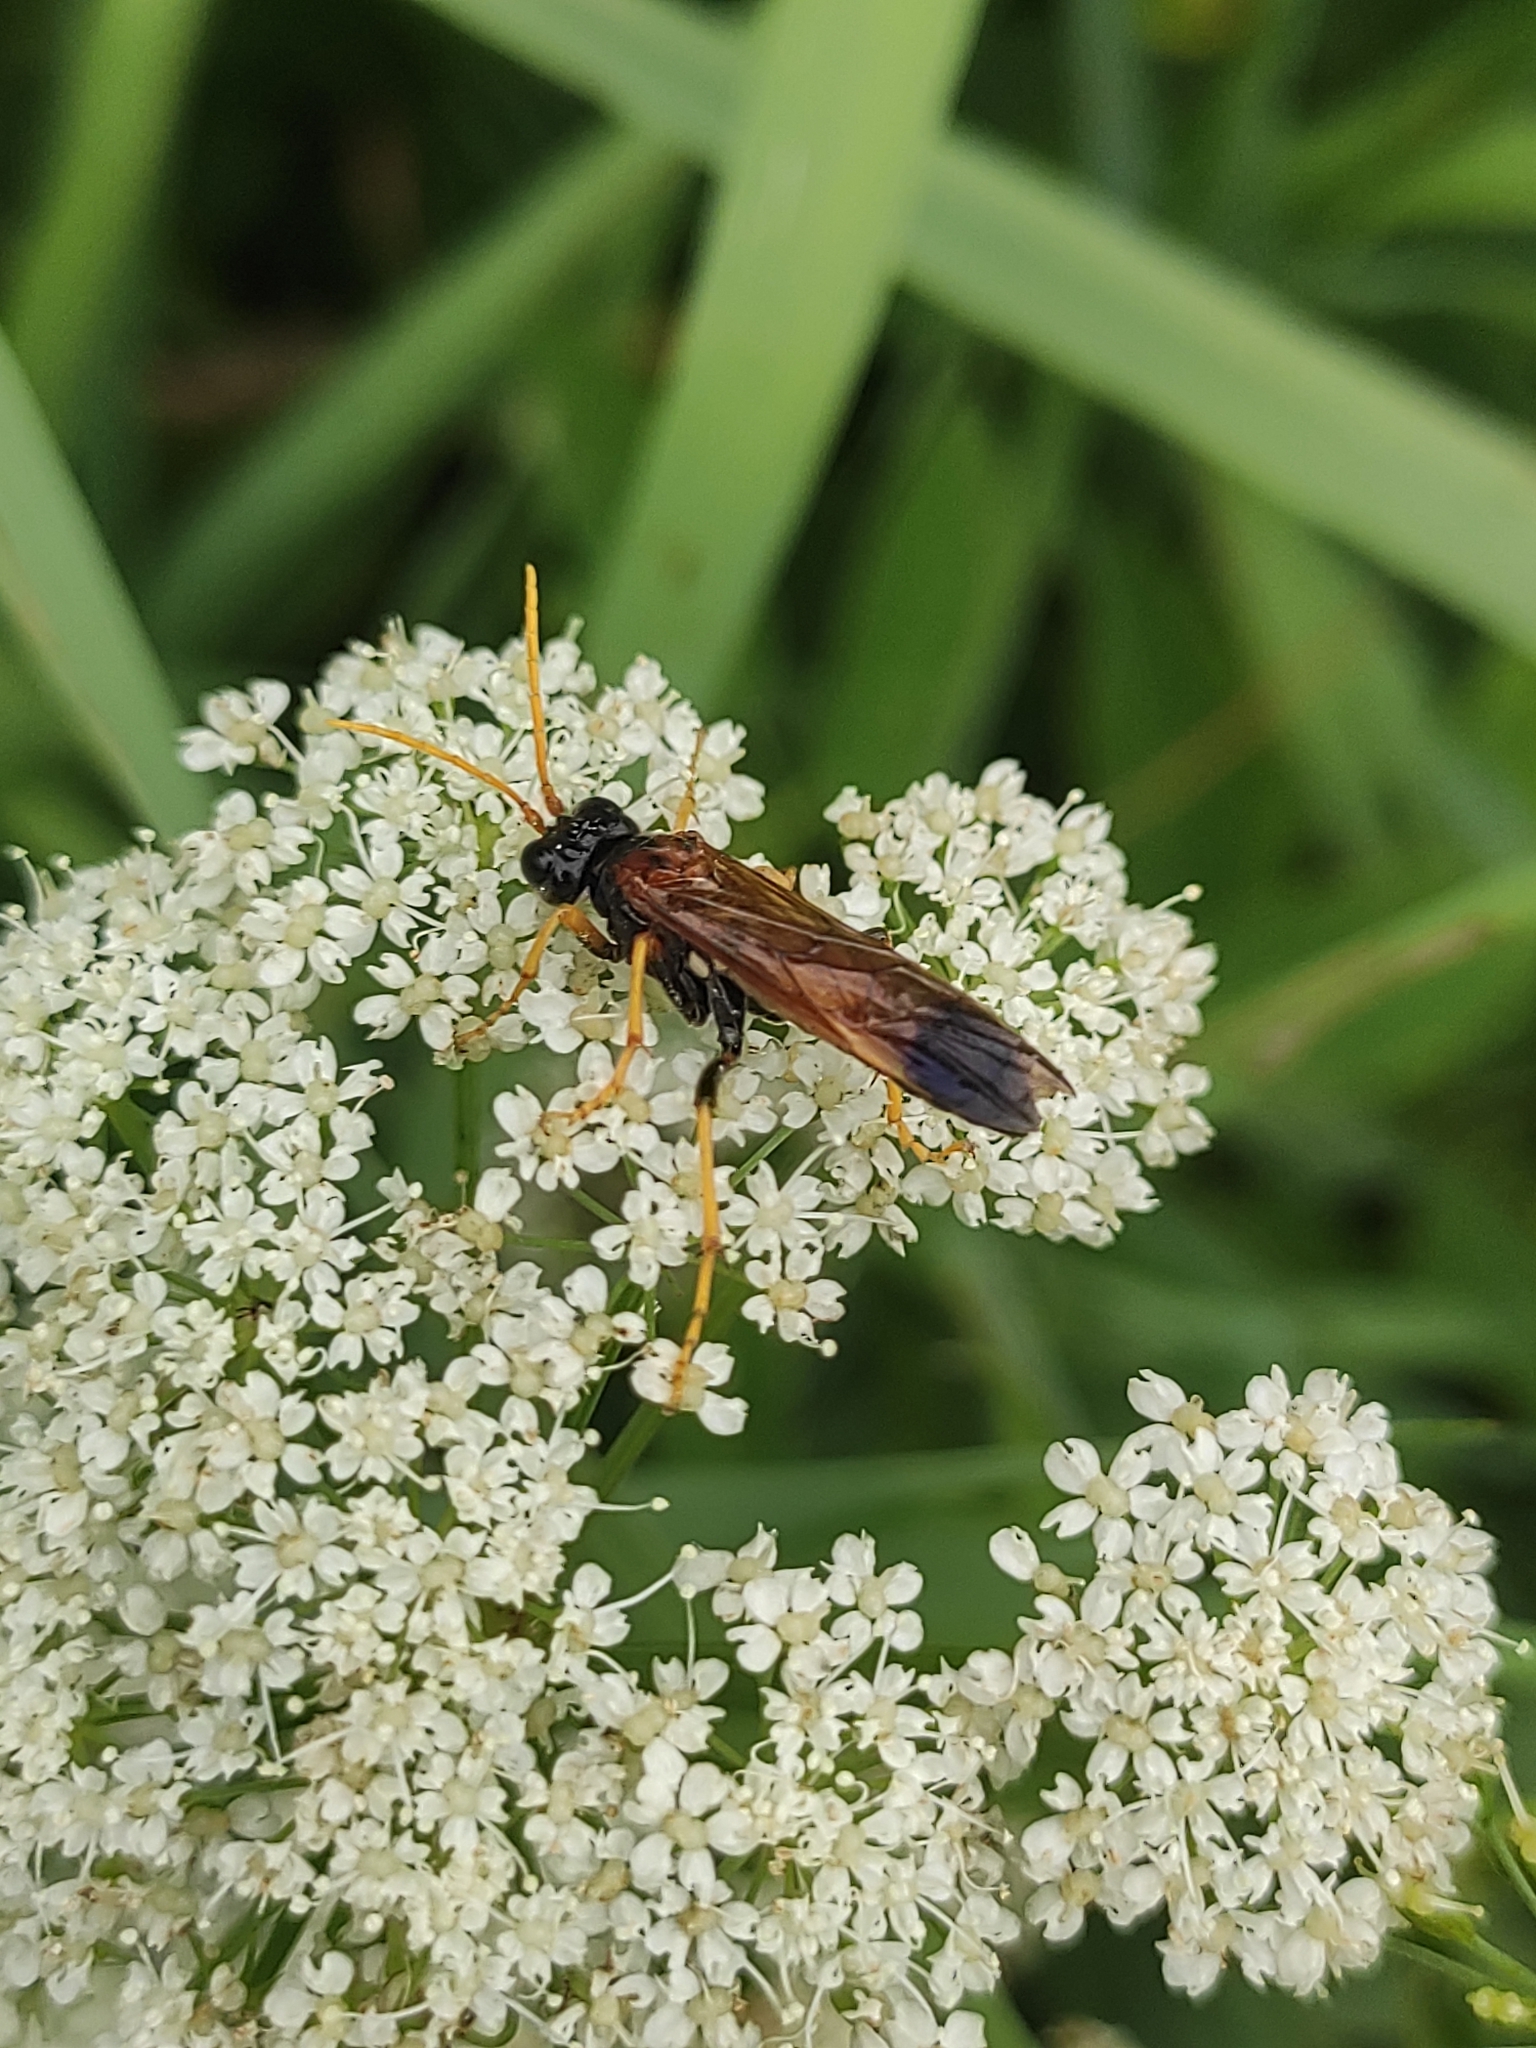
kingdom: Animalia
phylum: Arthropoda
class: Insecta
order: Hymenoptera
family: Tenthredinidae
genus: Tenthredo
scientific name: Tenthredo campestris
